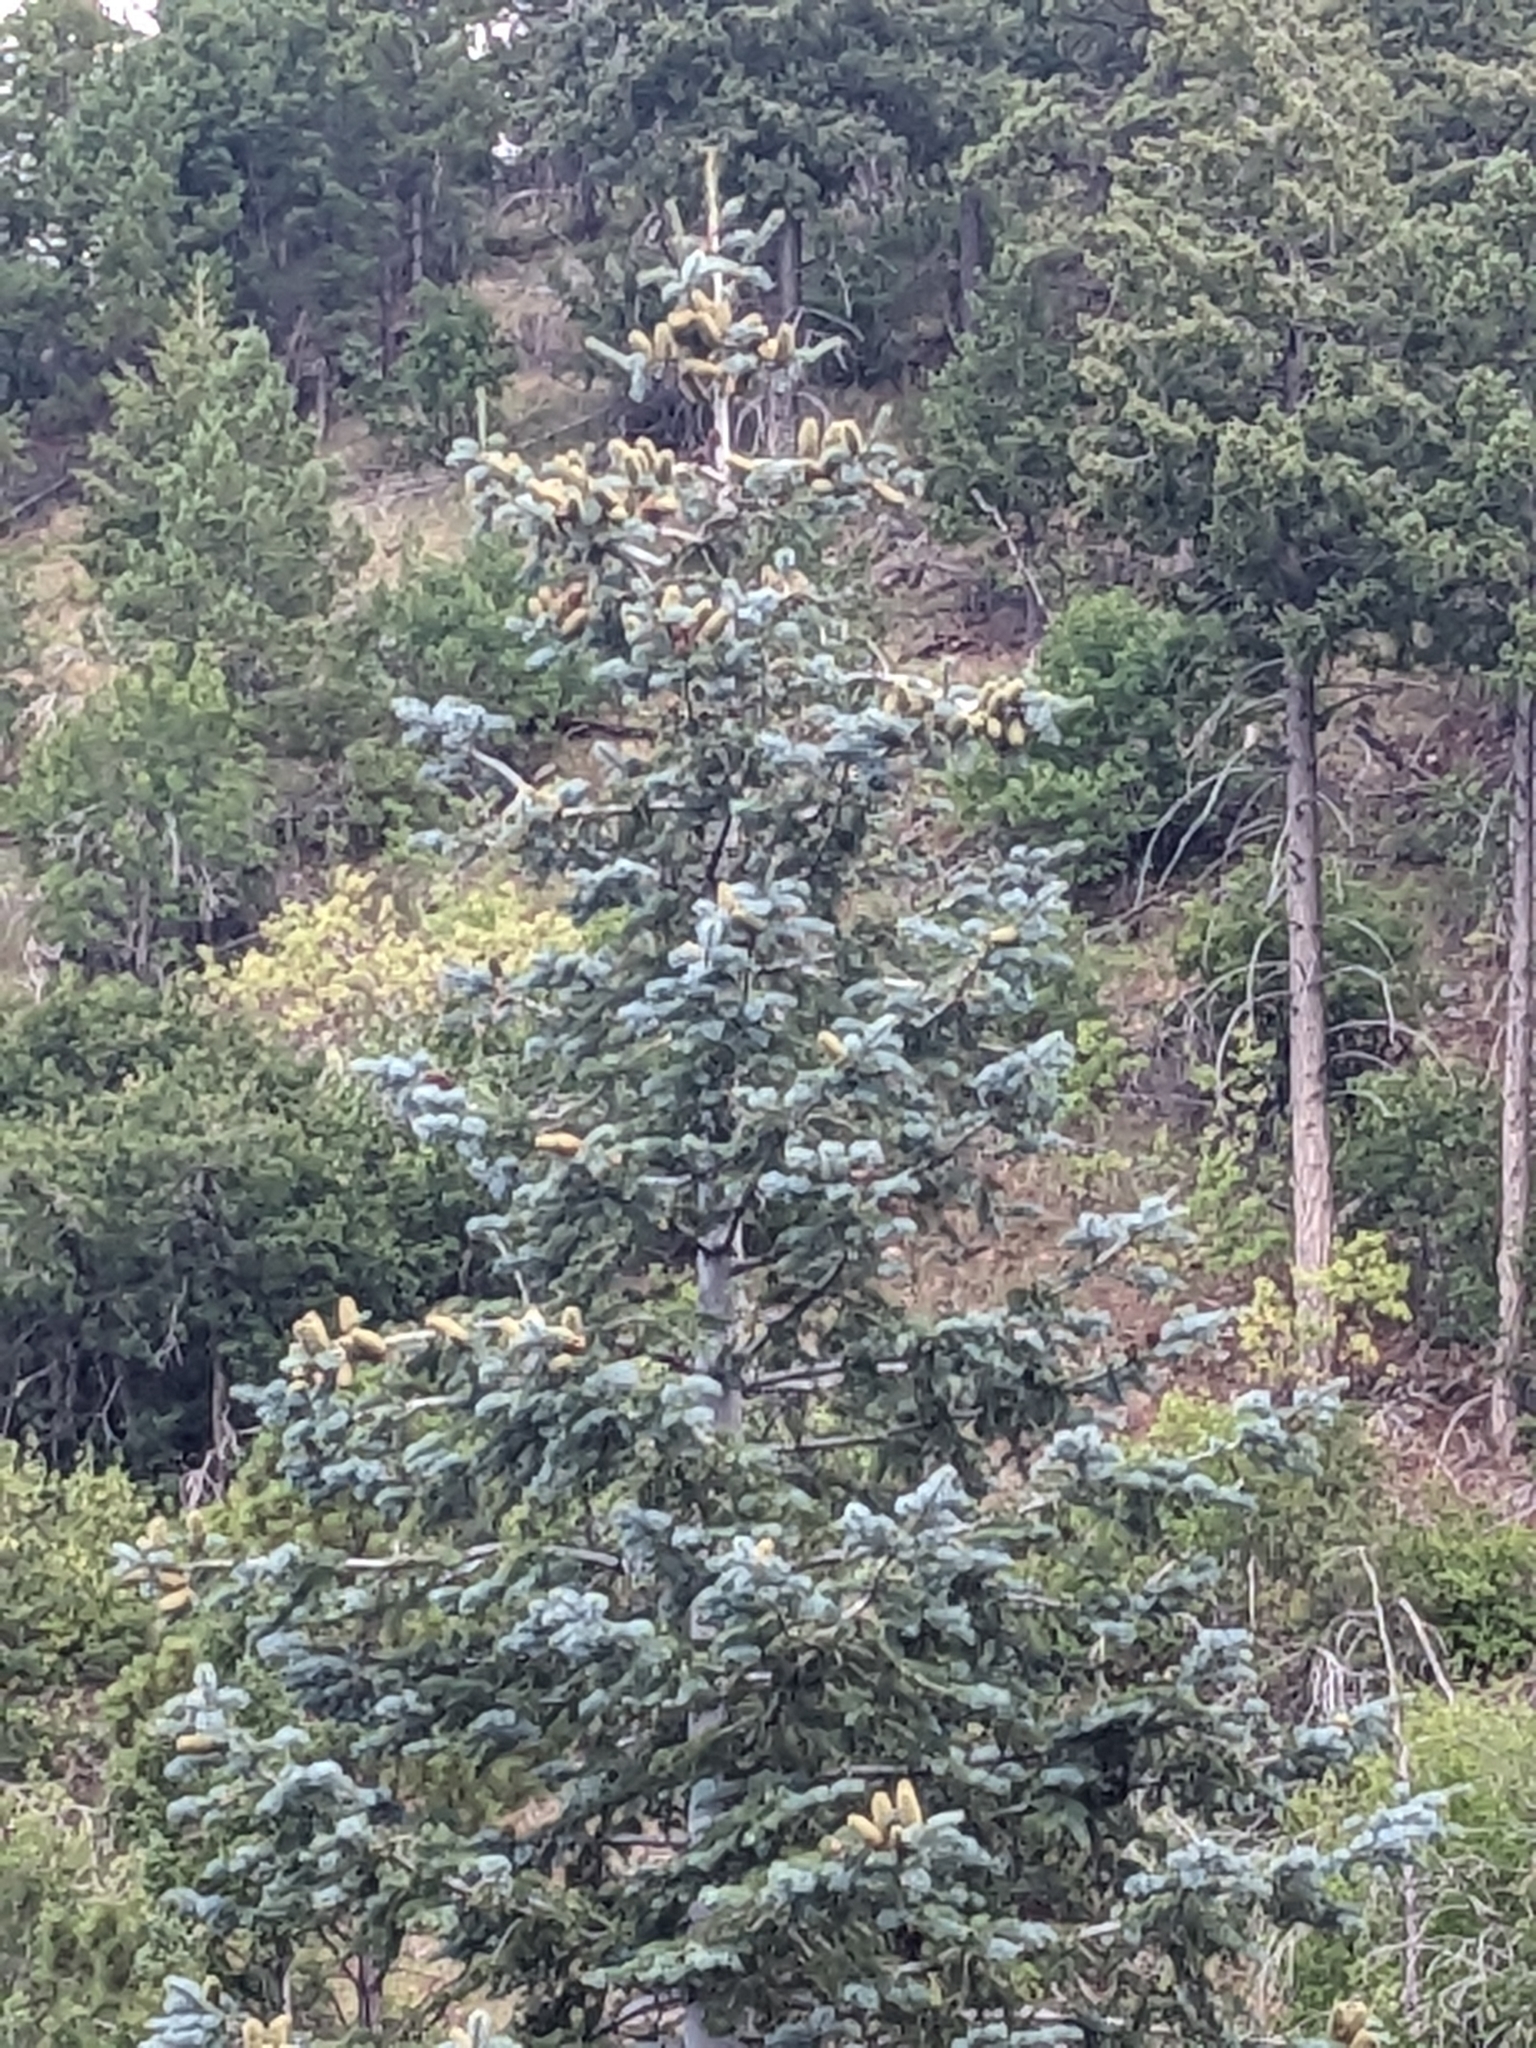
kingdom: Plantae
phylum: Tracheophyta
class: Pinopsida
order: Pinales
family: Pinaceae
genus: Abies
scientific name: Abies concolor
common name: Colorado fir
